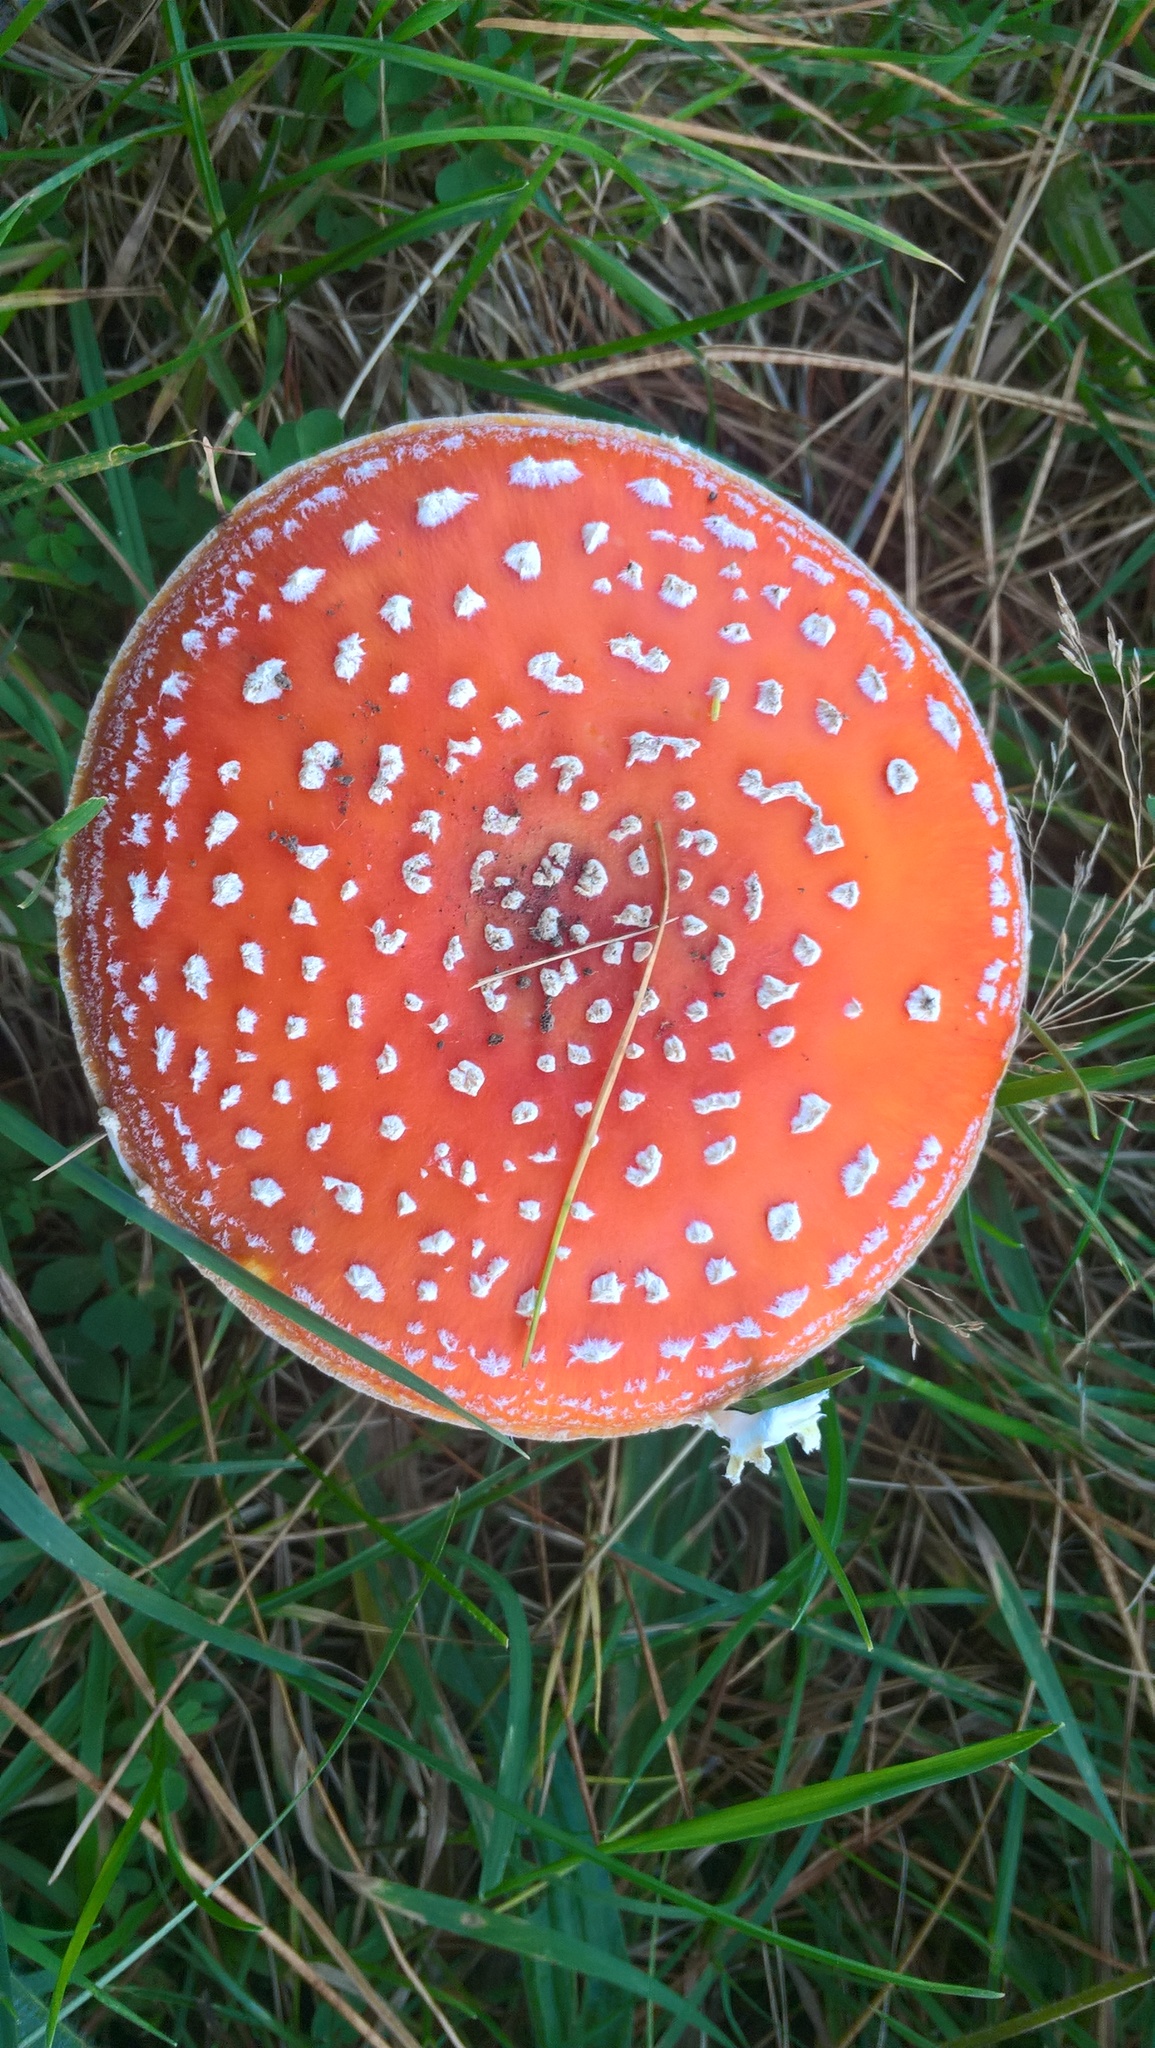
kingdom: Fungi
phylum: Basidiomycota
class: Agaricomycetes
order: Agaricales
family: Amanitaceae
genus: Amanita
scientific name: Amanita muscaria
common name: Fly agaric
